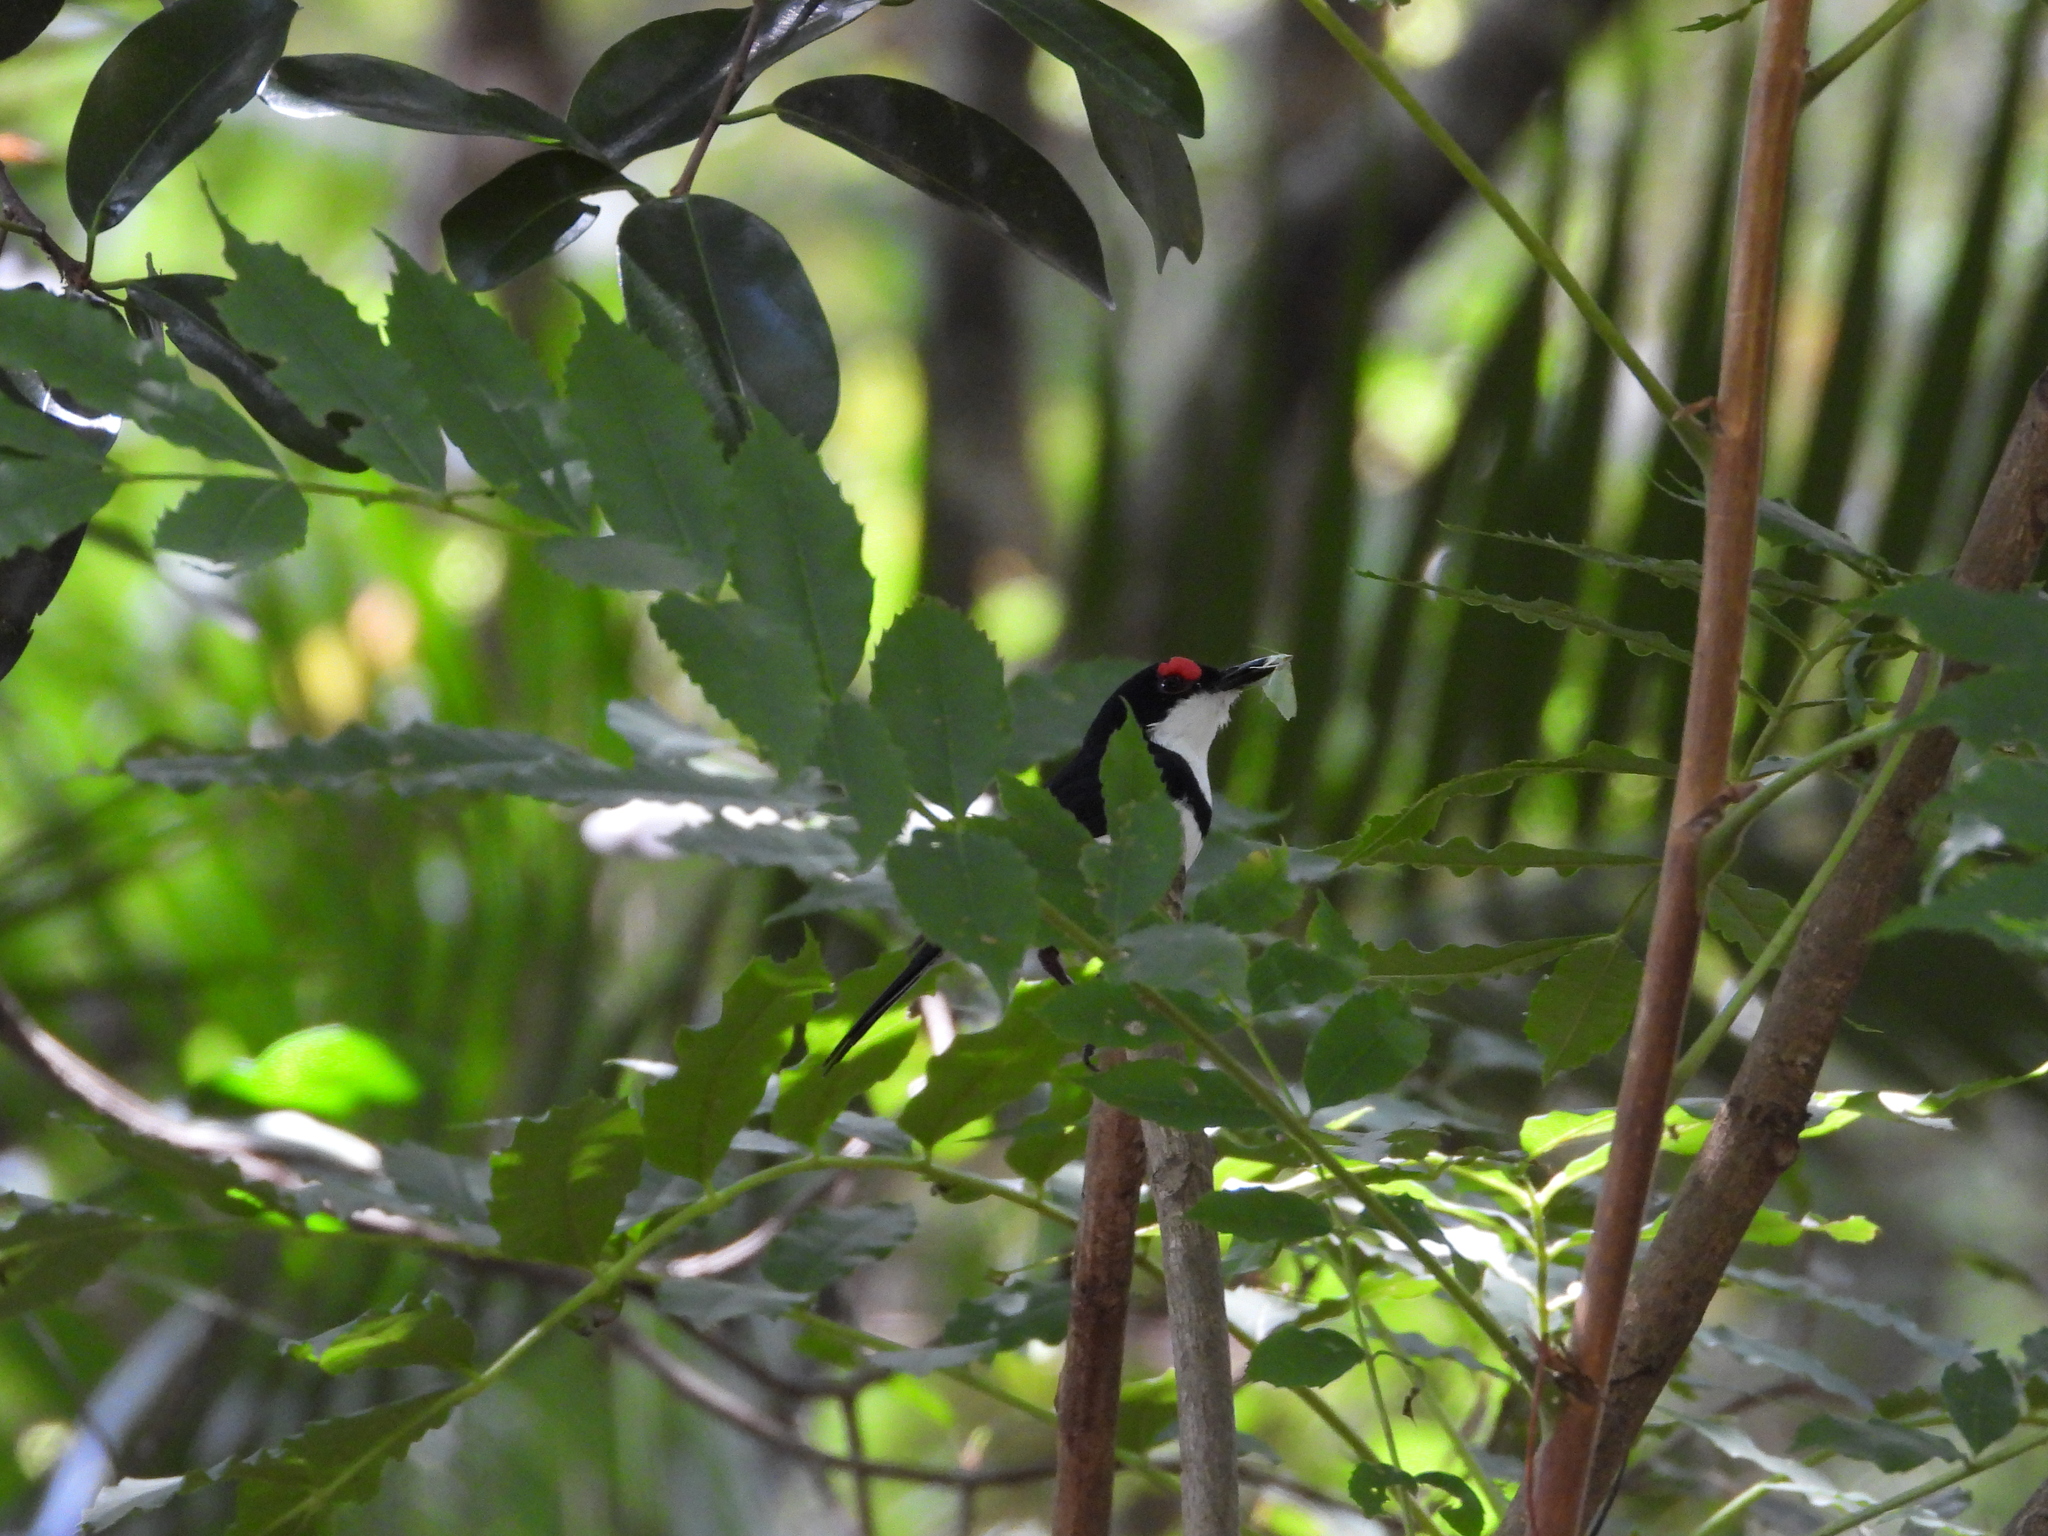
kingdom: Animalia
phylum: Chordata
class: Aves
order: Passeriformes
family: Platysteiridae
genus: Platysteira
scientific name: Platysteira peltata
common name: Black-throated wattle-eye
